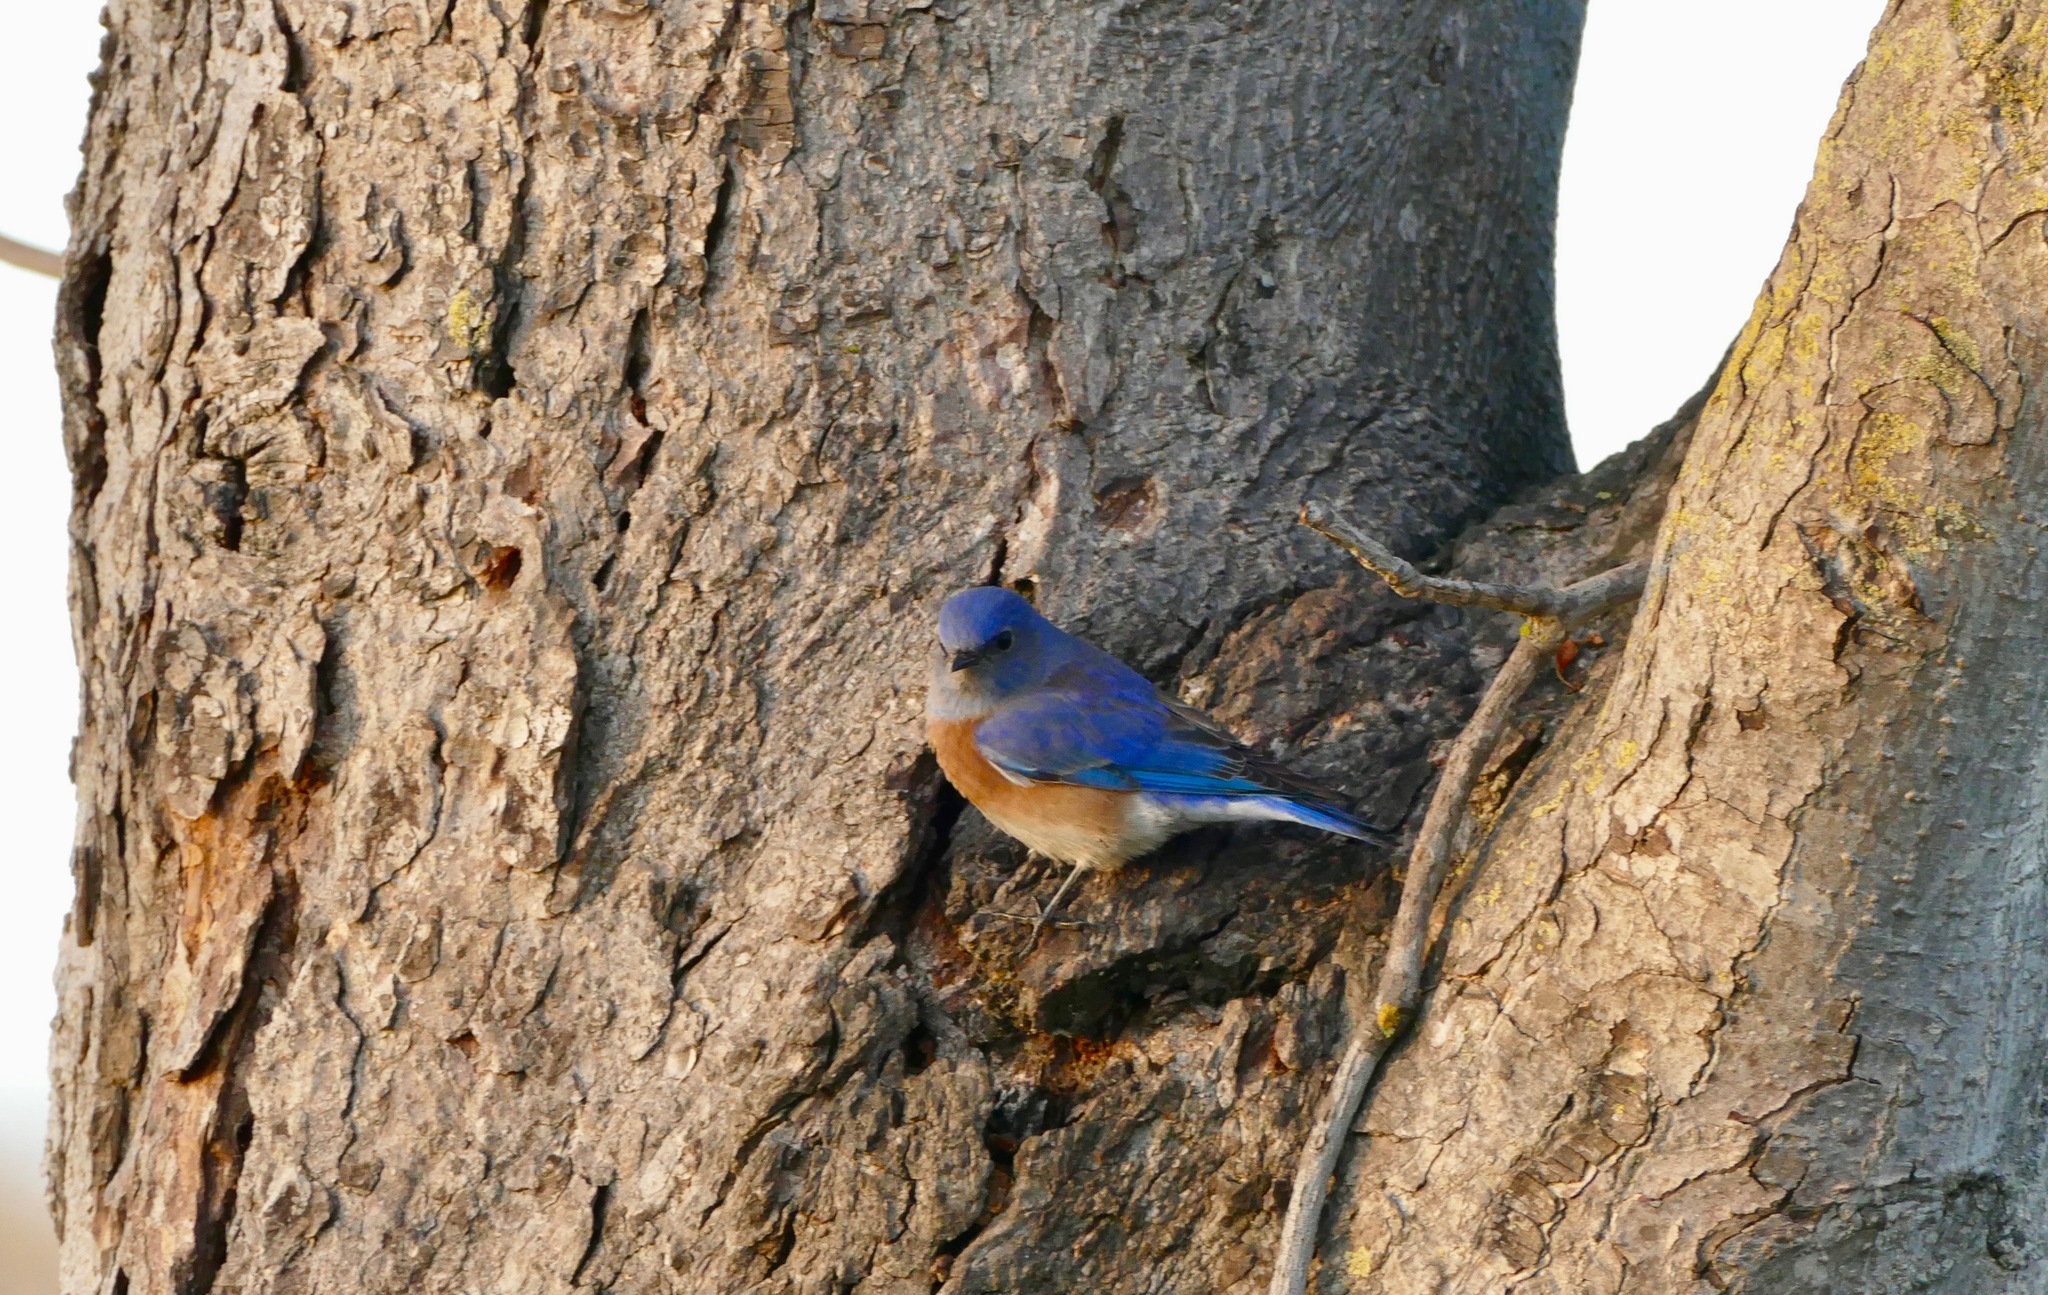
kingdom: Animalia
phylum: Chordata
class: Aves
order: Passeriformes
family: Turdidae
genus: Sialia
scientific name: Sialia mexicana
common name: Western bluebird
